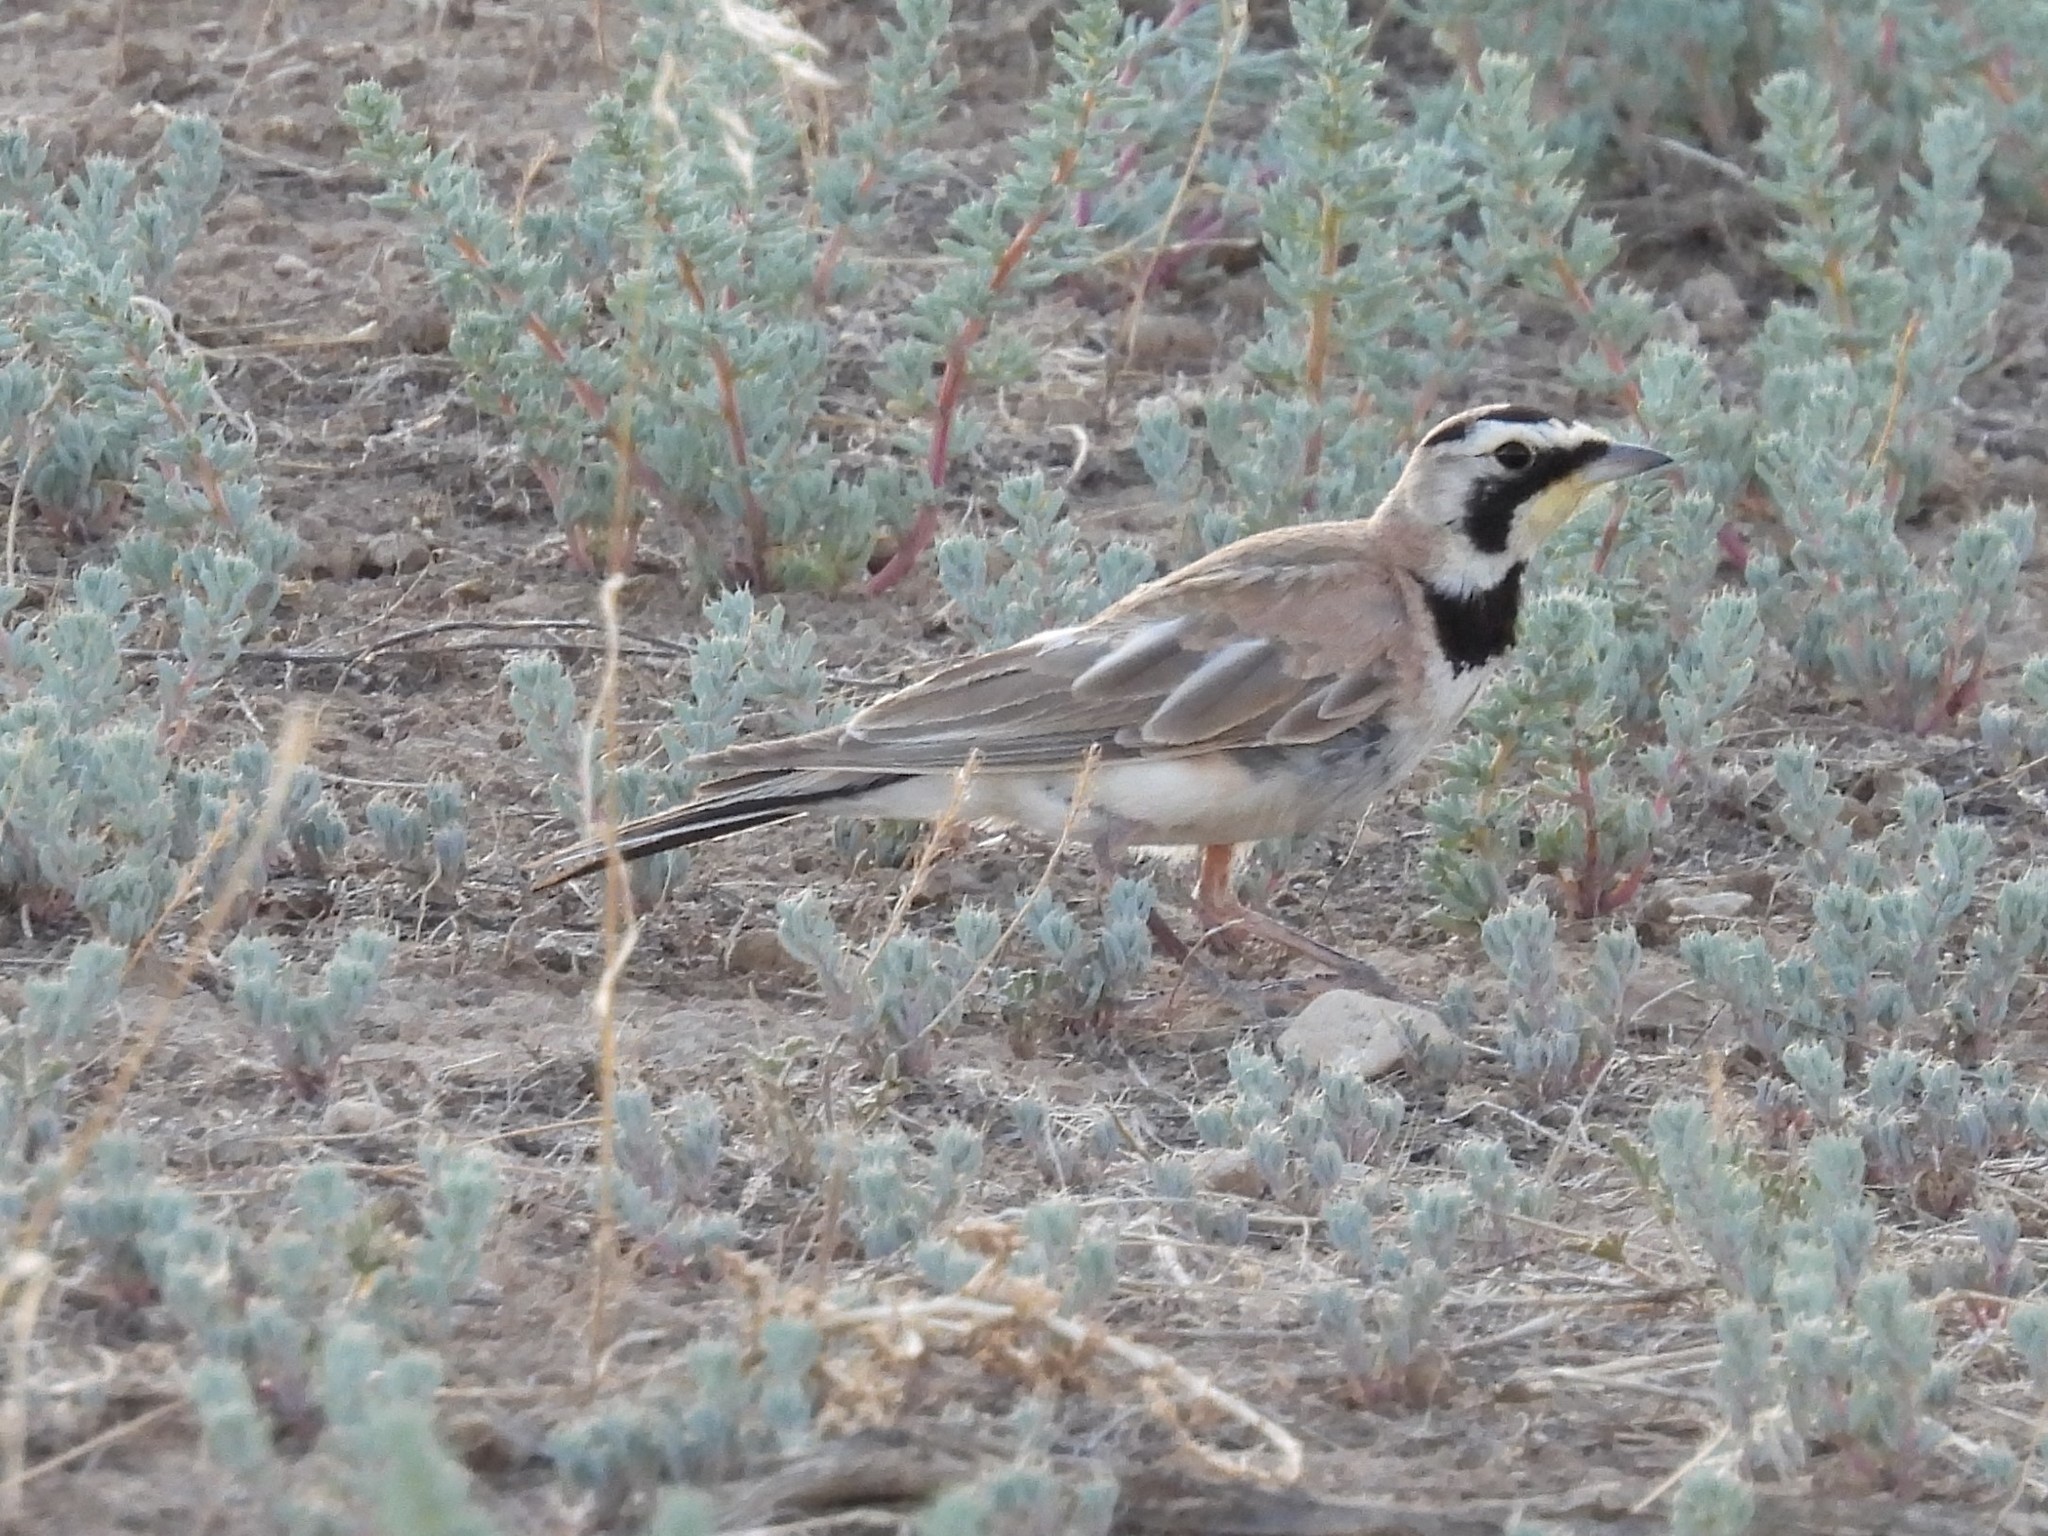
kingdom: Animalia
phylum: Chordata
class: Aves
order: Passeriformes
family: Alaudidae
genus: Eremophila
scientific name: Eremophila alpestris
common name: Horned lark
